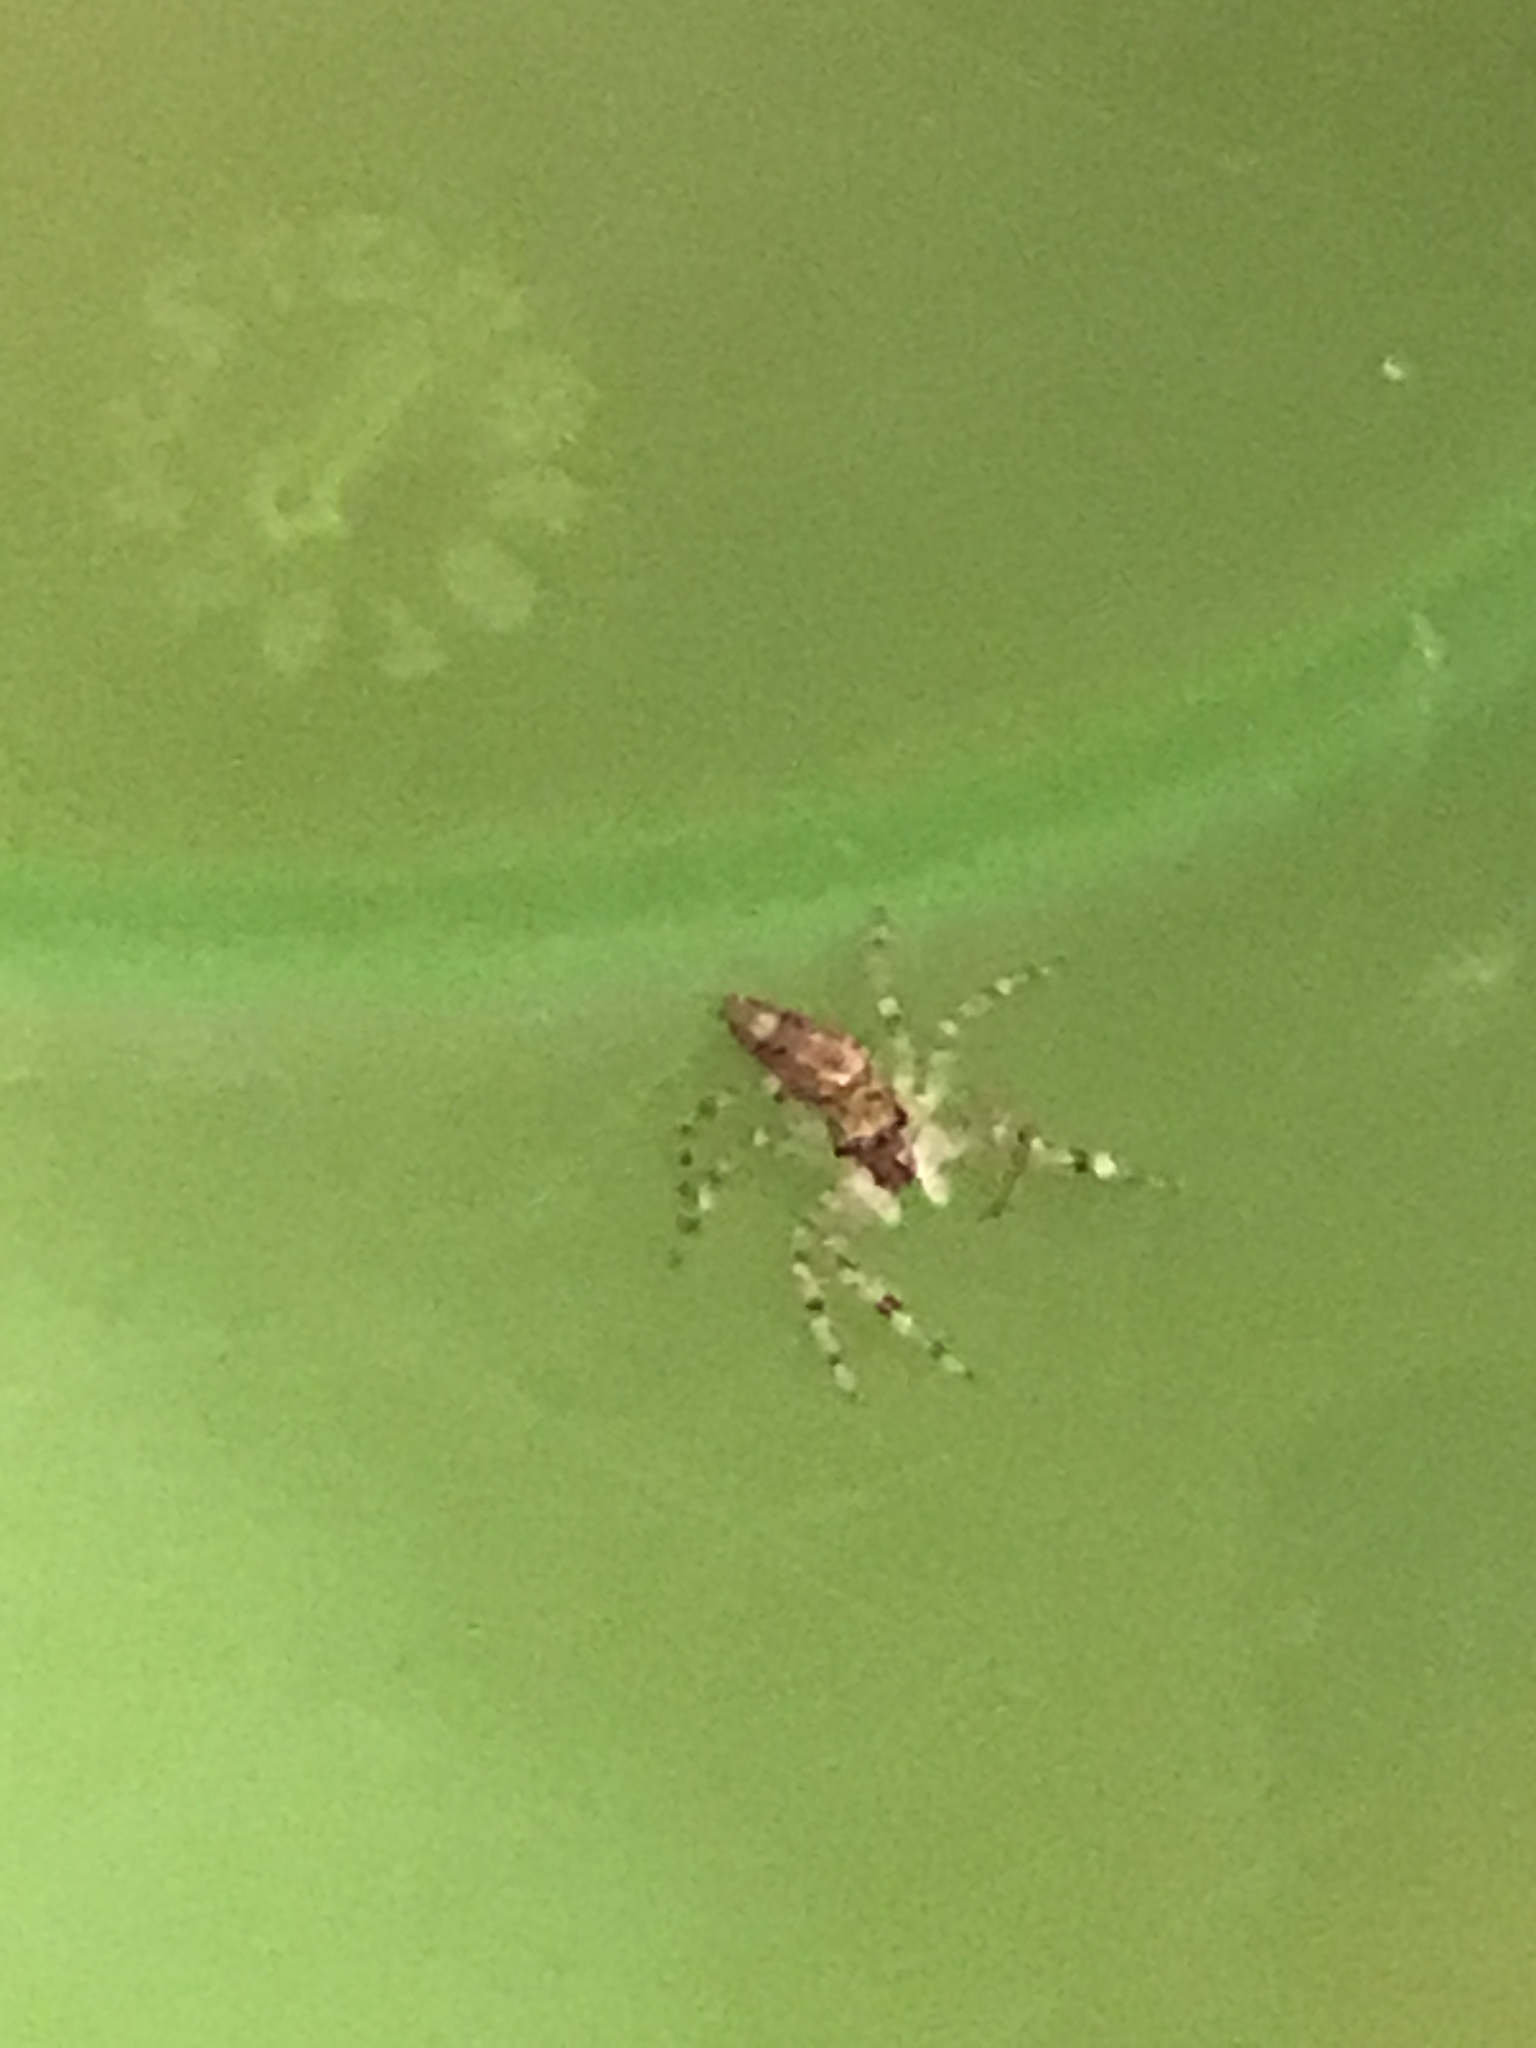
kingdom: Animalia
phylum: Arthropoda
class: Arachnida
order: Araneae
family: Salticidae
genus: Helpis
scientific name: Helpis minitabunda
